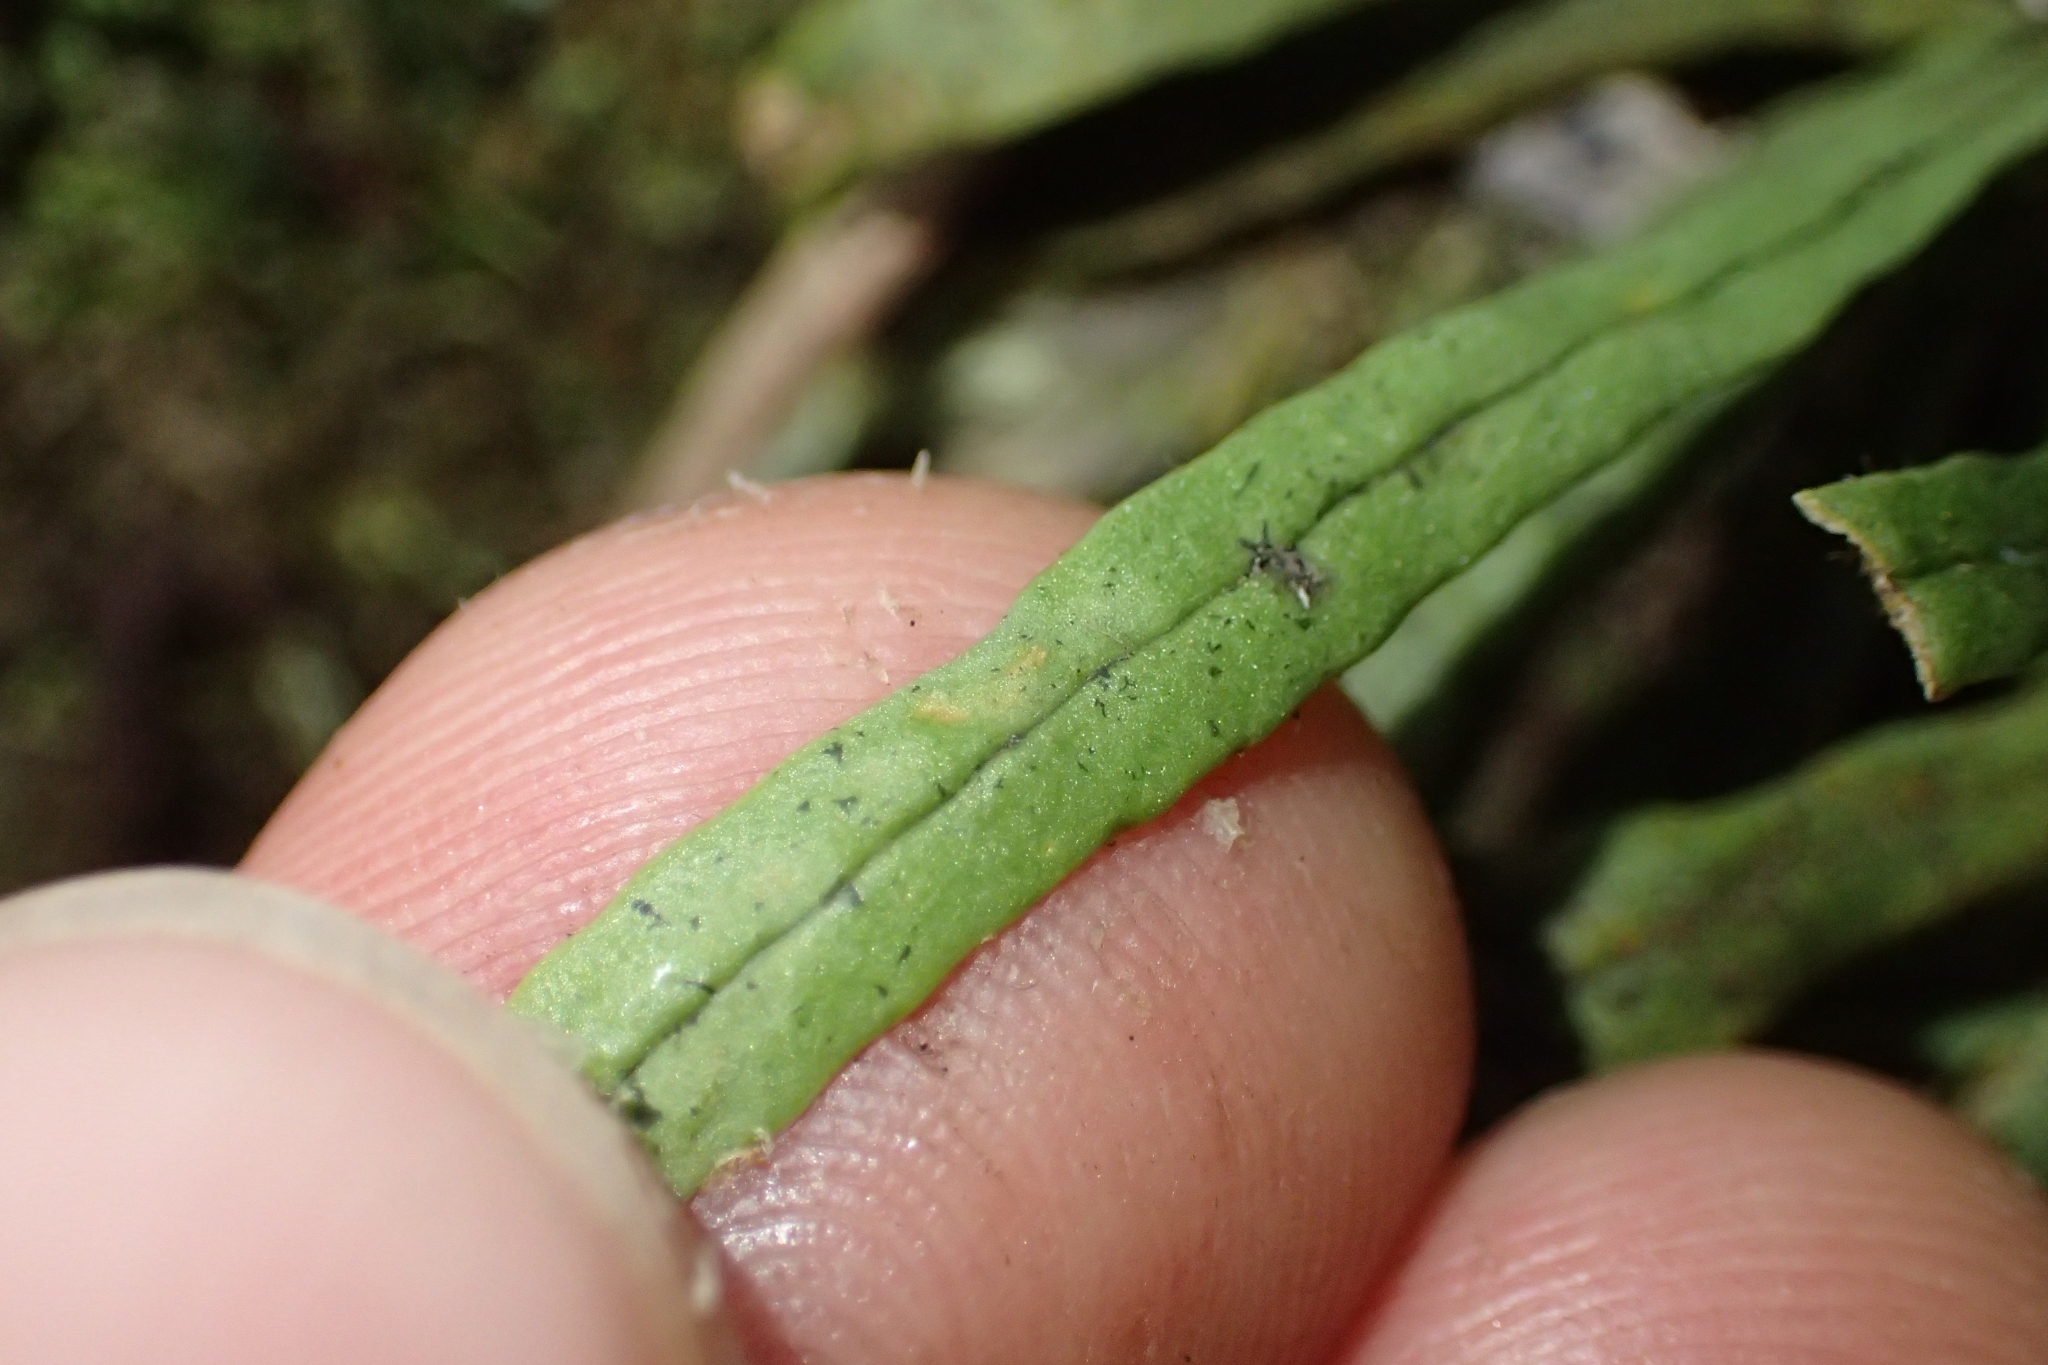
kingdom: Plantae
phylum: Tracheophyta
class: Polypodiopsida
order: Polypodiales
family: Polypodiaceae
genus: Notogrammitis
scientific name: Notogrammitis ciliata
